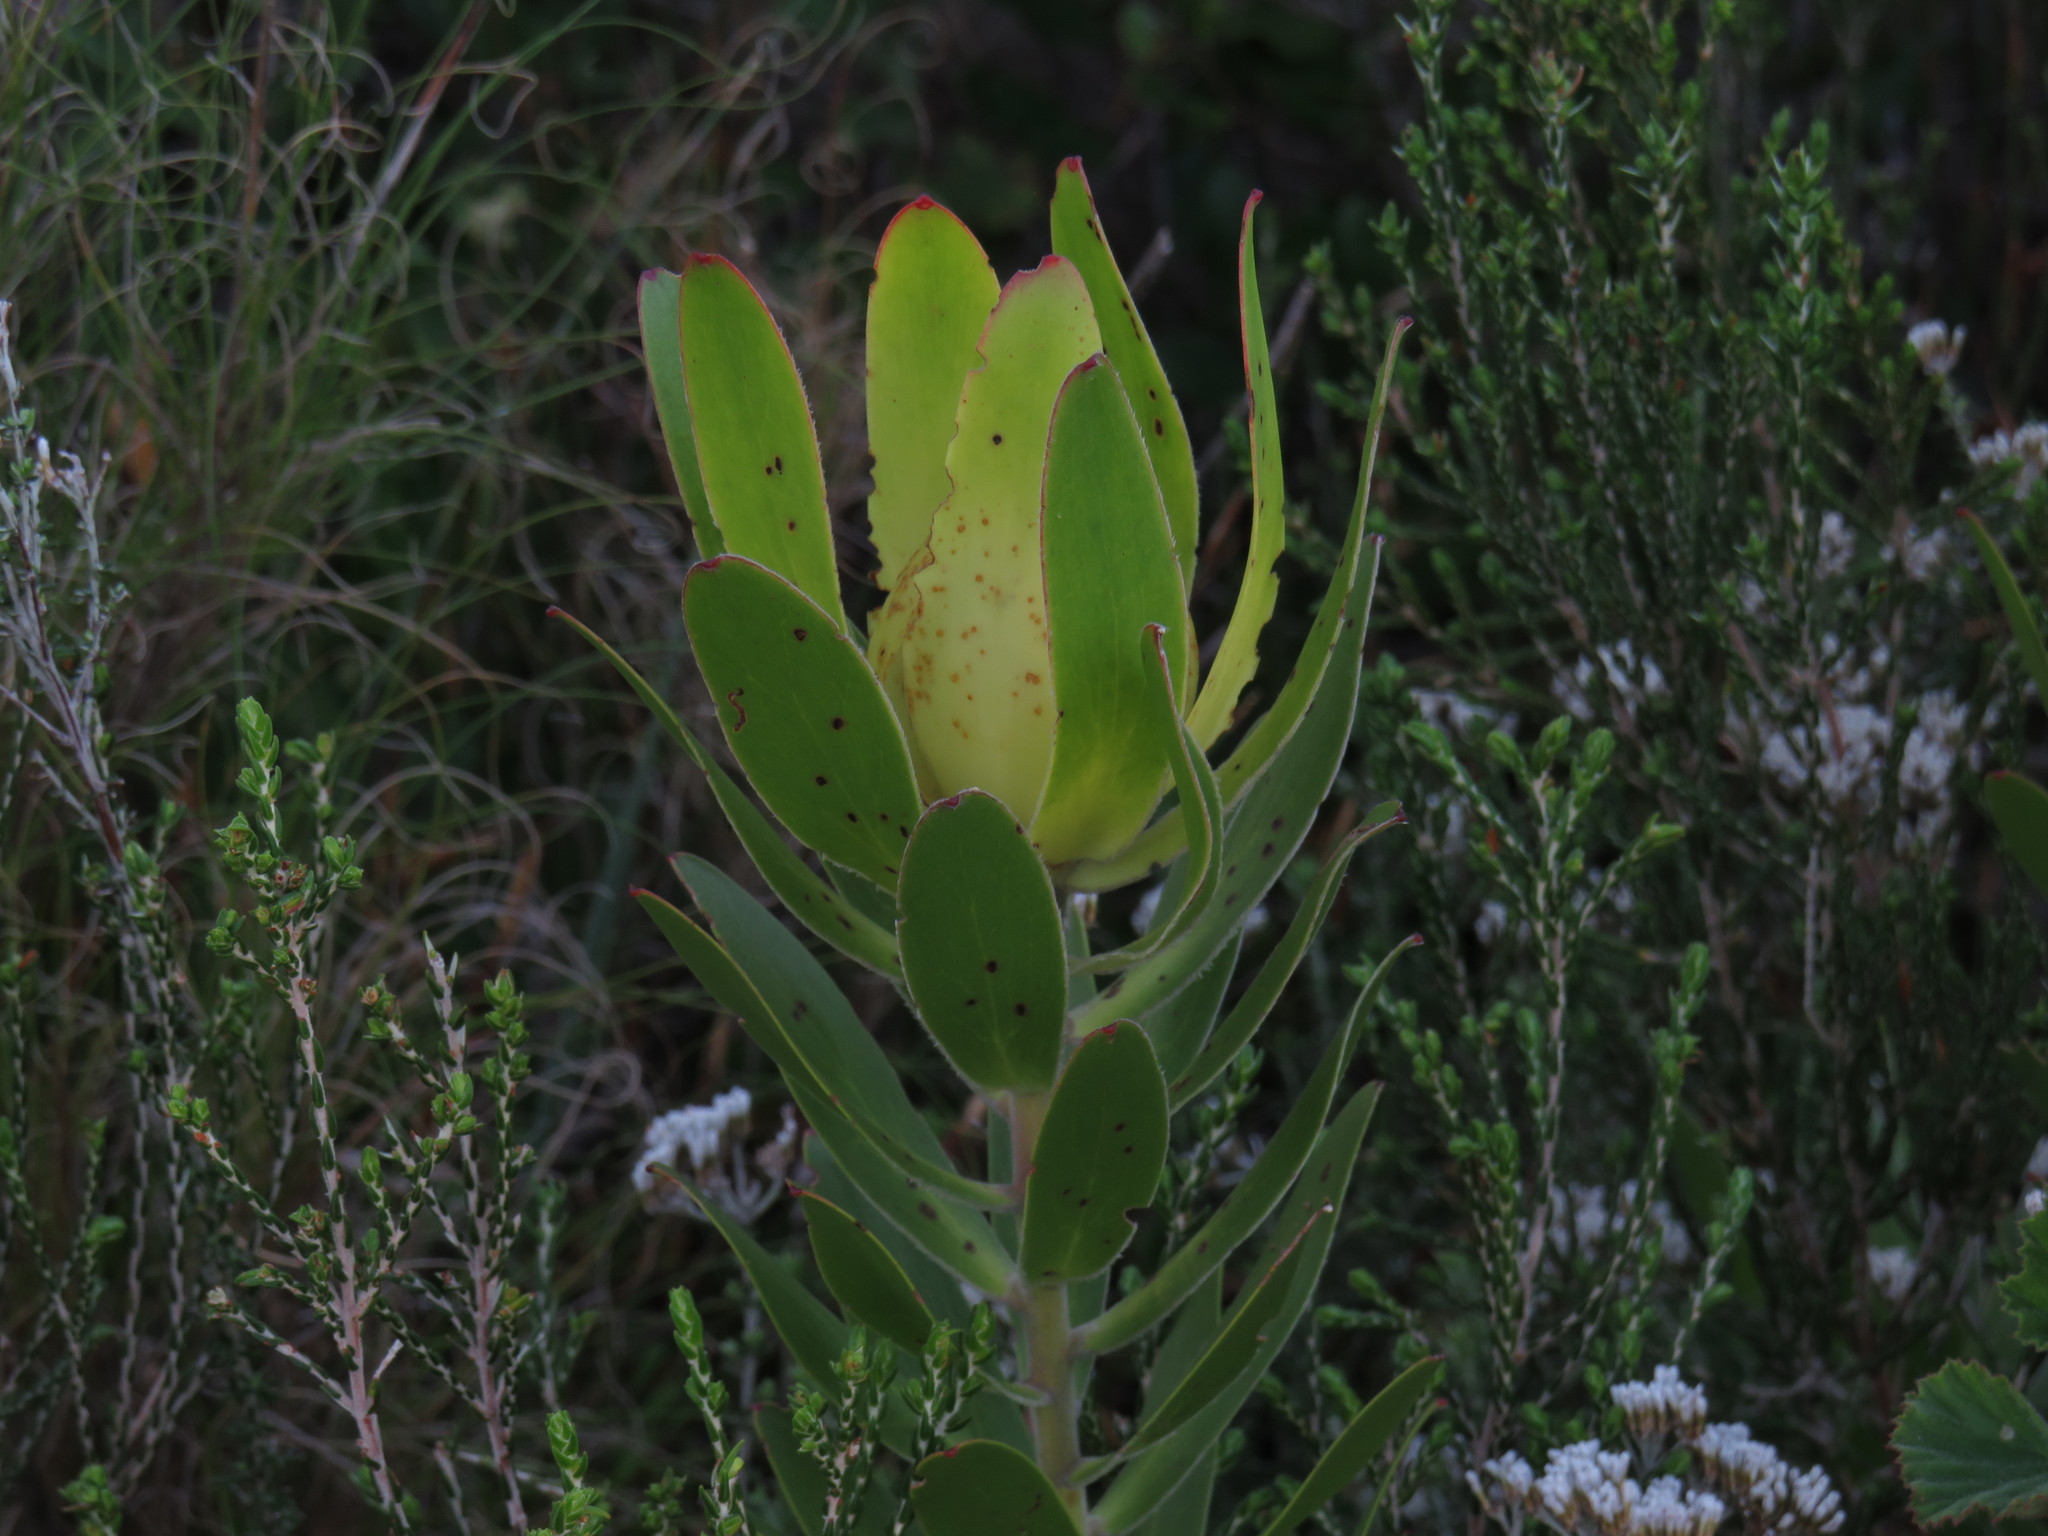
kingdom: Plantae
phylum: Tracheophyta
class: Magnoliopsida
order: Proteales
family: Proteaceae
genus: Leucadendron
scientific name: Leucadendron laureolum
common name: Golden sunshinebush
